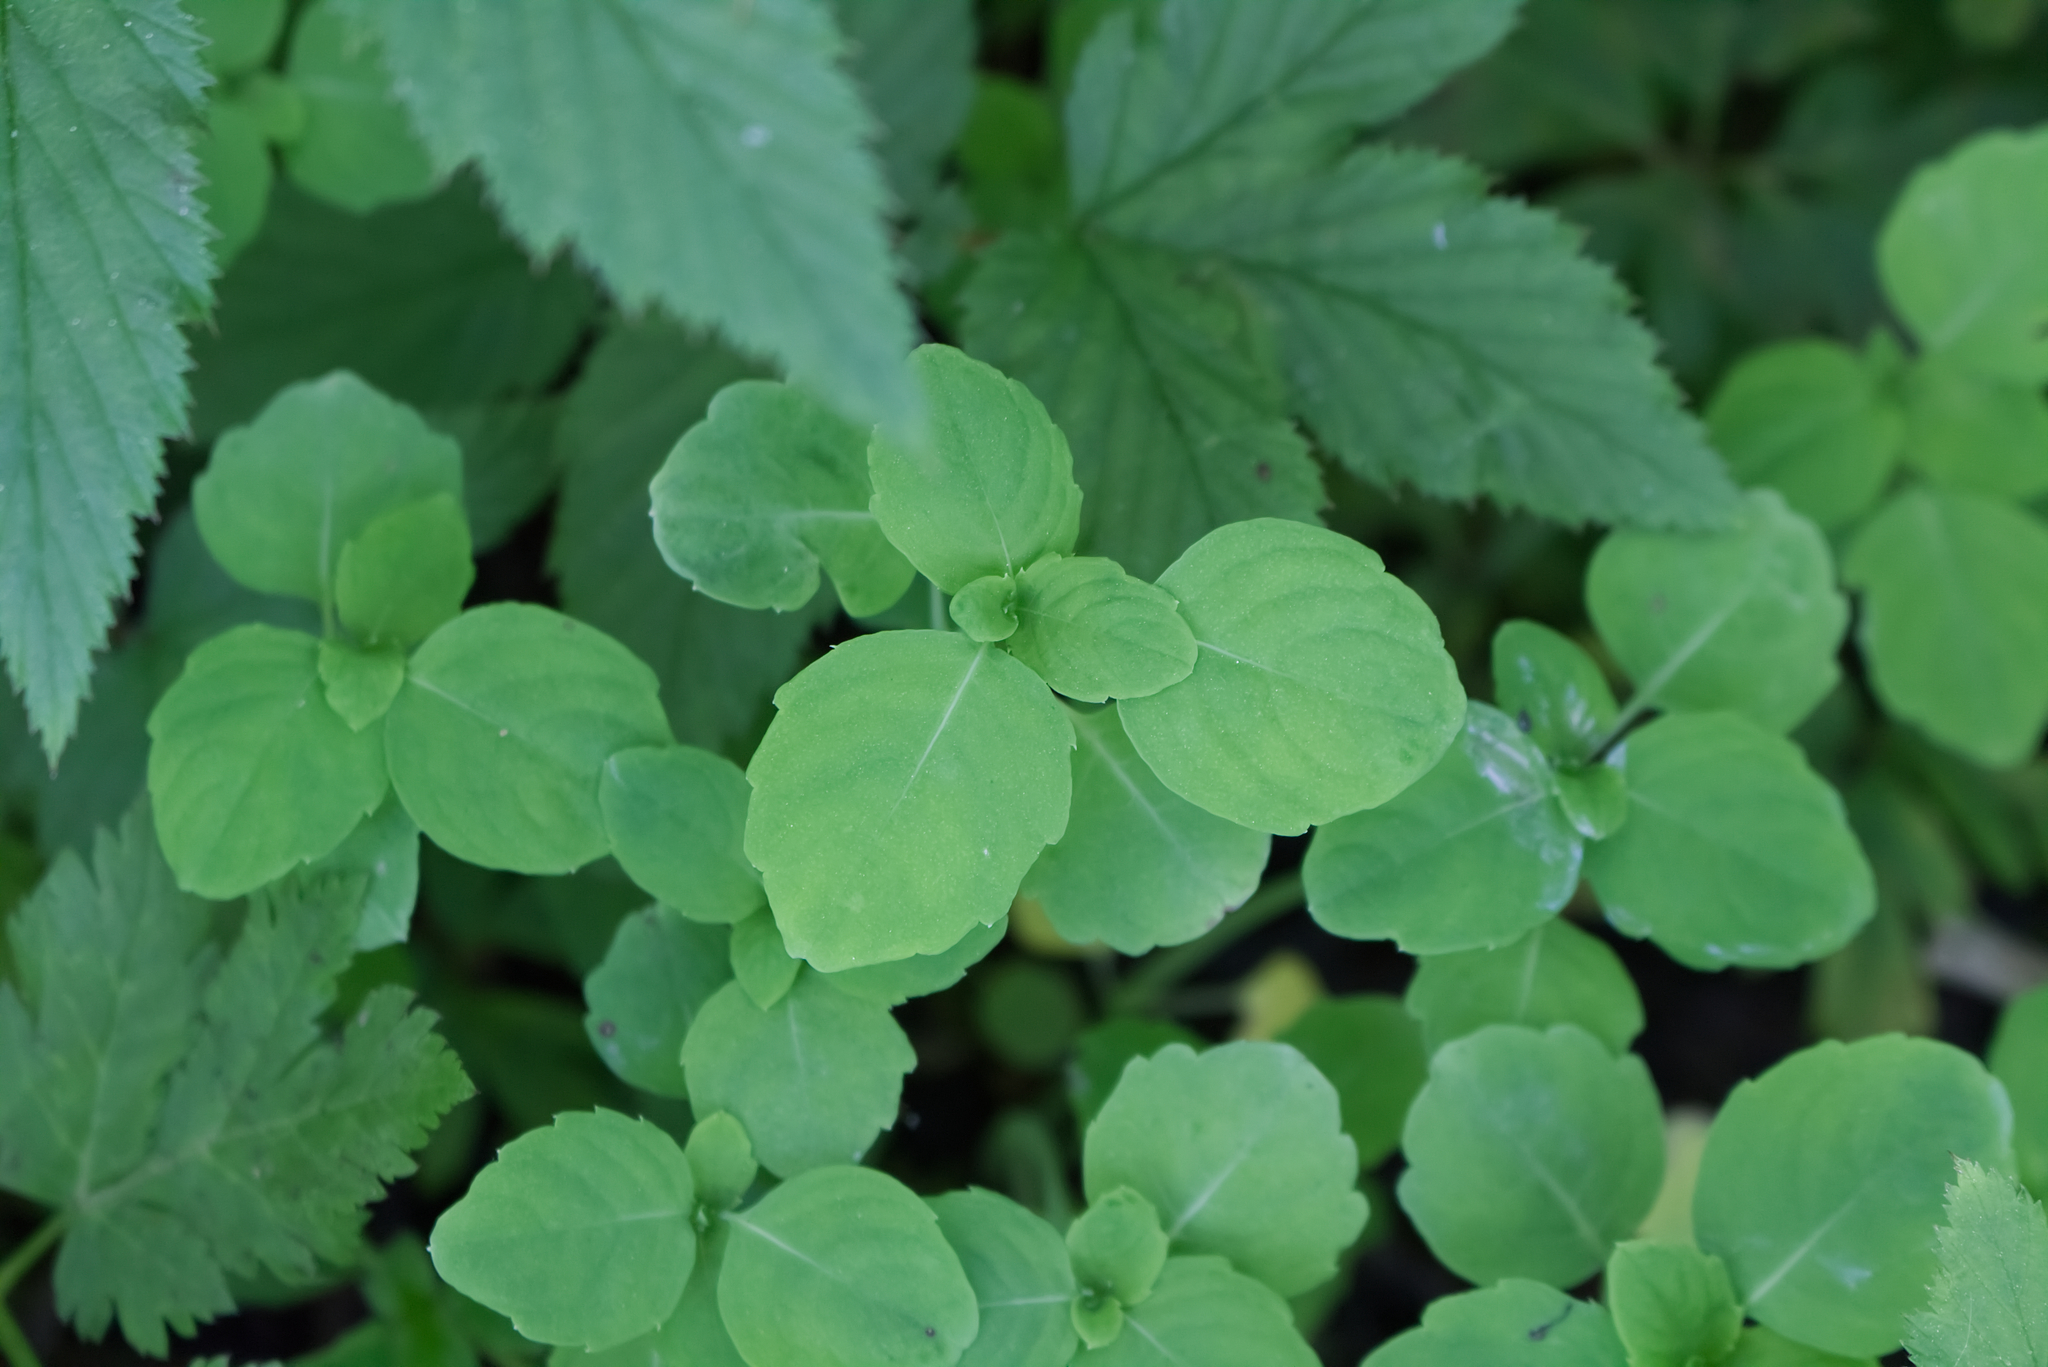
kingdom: Plantae
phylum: Tracheophyta
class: Magnoliopsida
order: Ericales
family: Balsaminaceae
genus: Impatiens
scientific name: Impatiens noli-tangere
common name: Touch-me-not balsam
